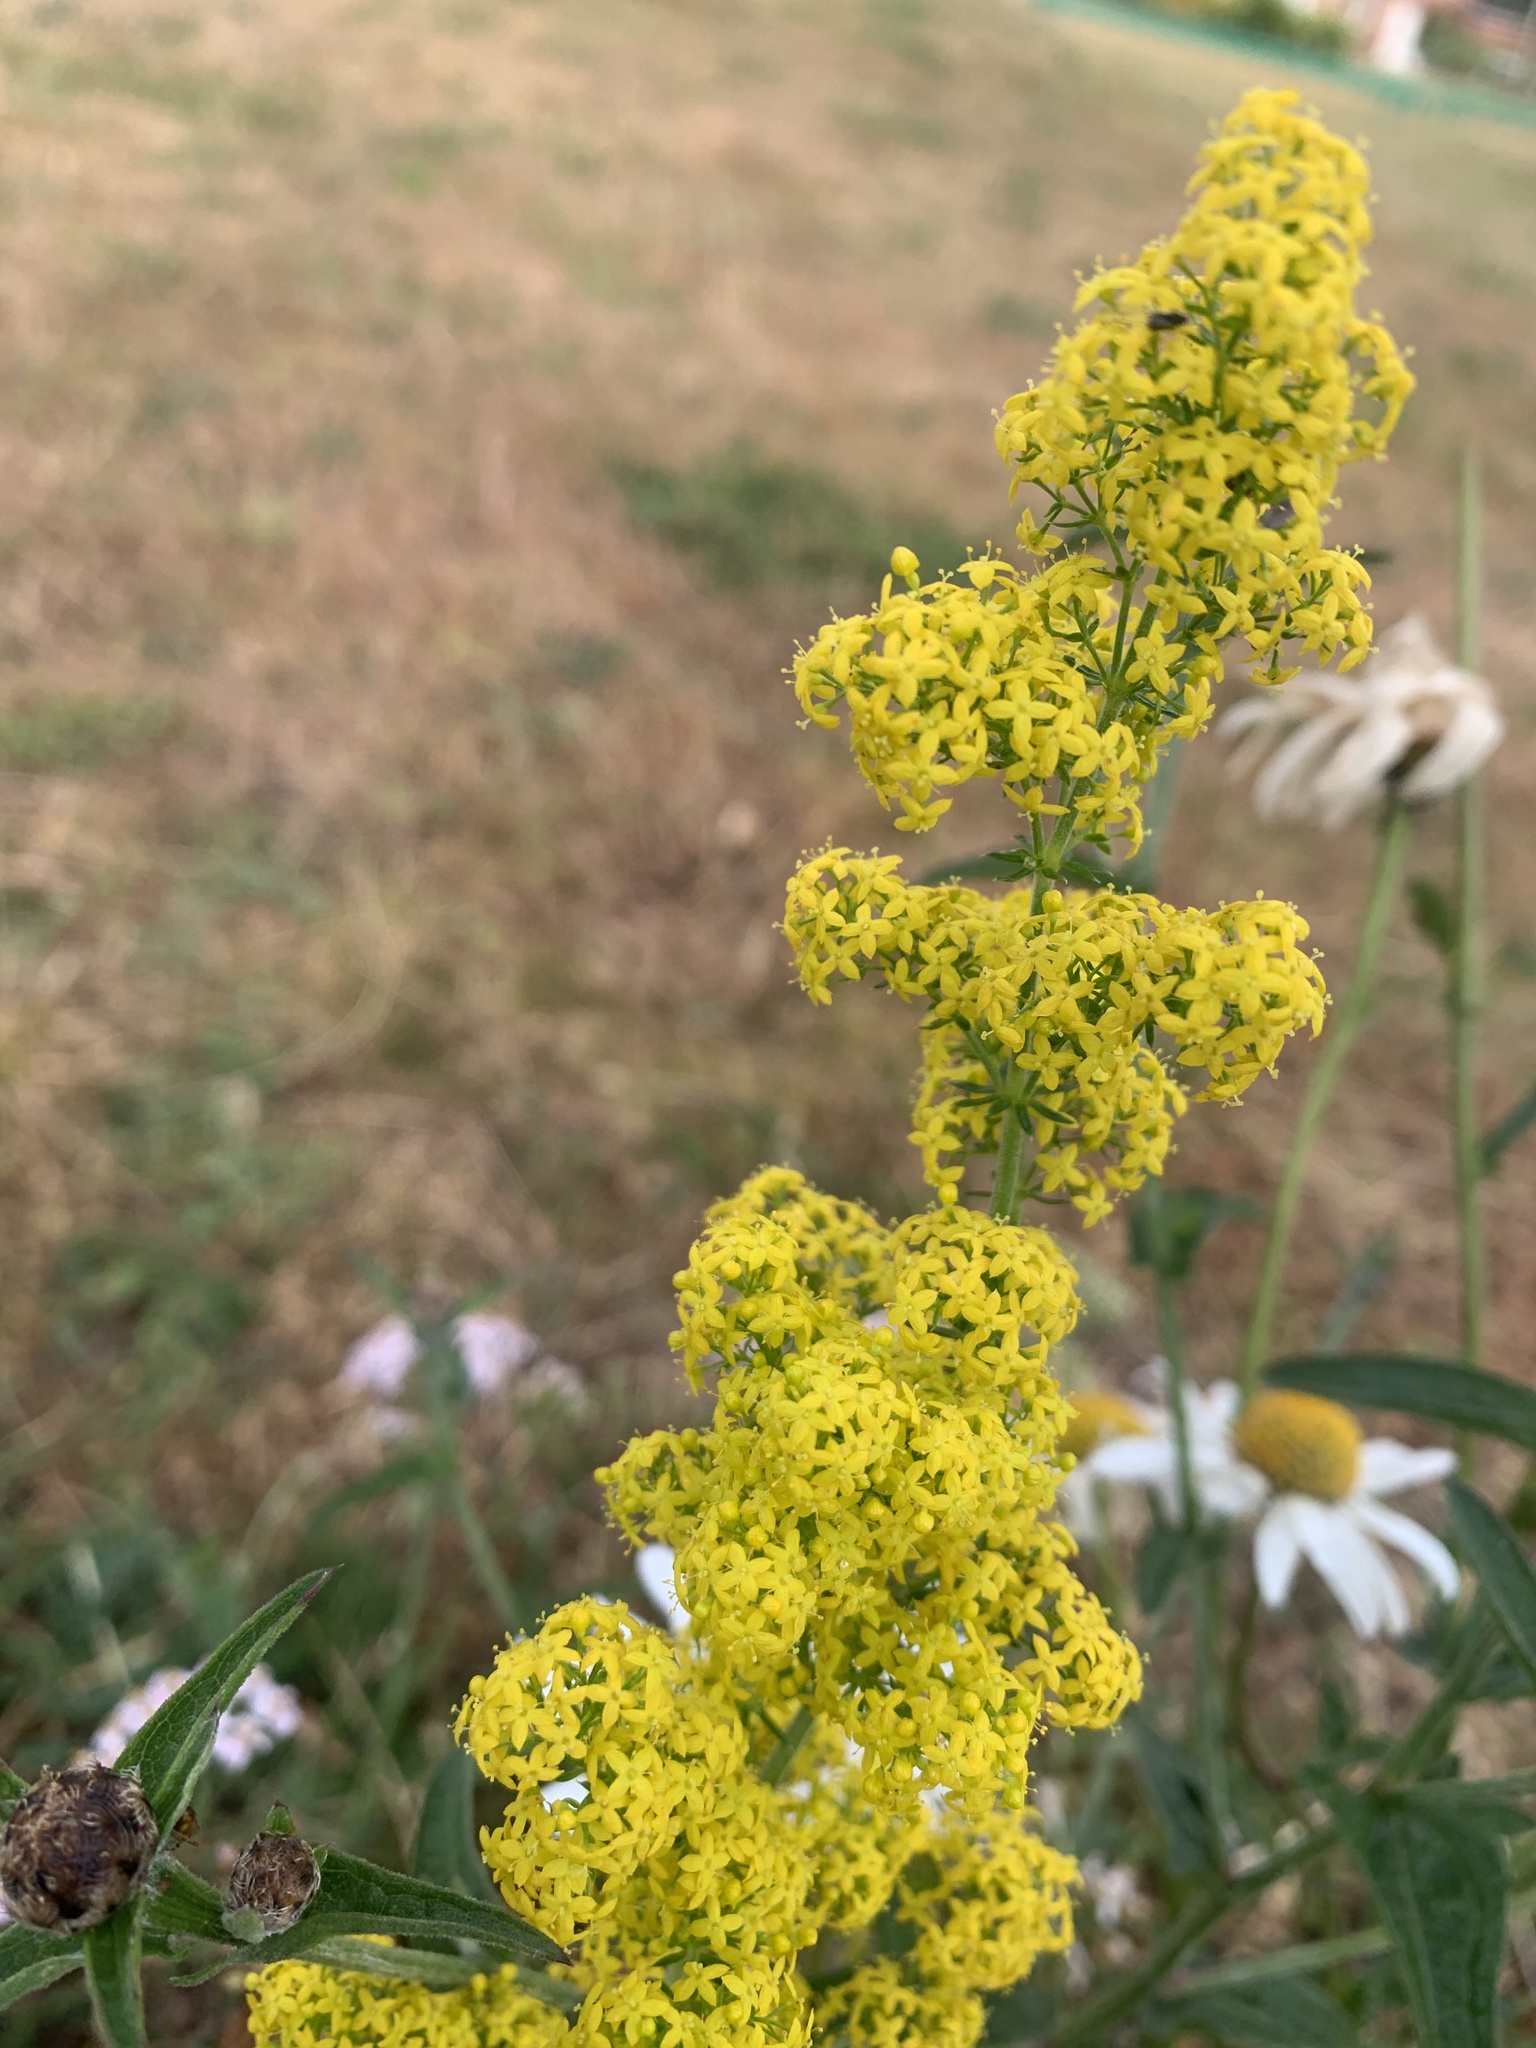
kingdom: Plantae
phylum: Tracheophyta
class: Magnoliopsida
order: Gentianales
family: Rubiaceae
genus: Galium
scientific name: Galium verum
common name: Lady's bedstraw
